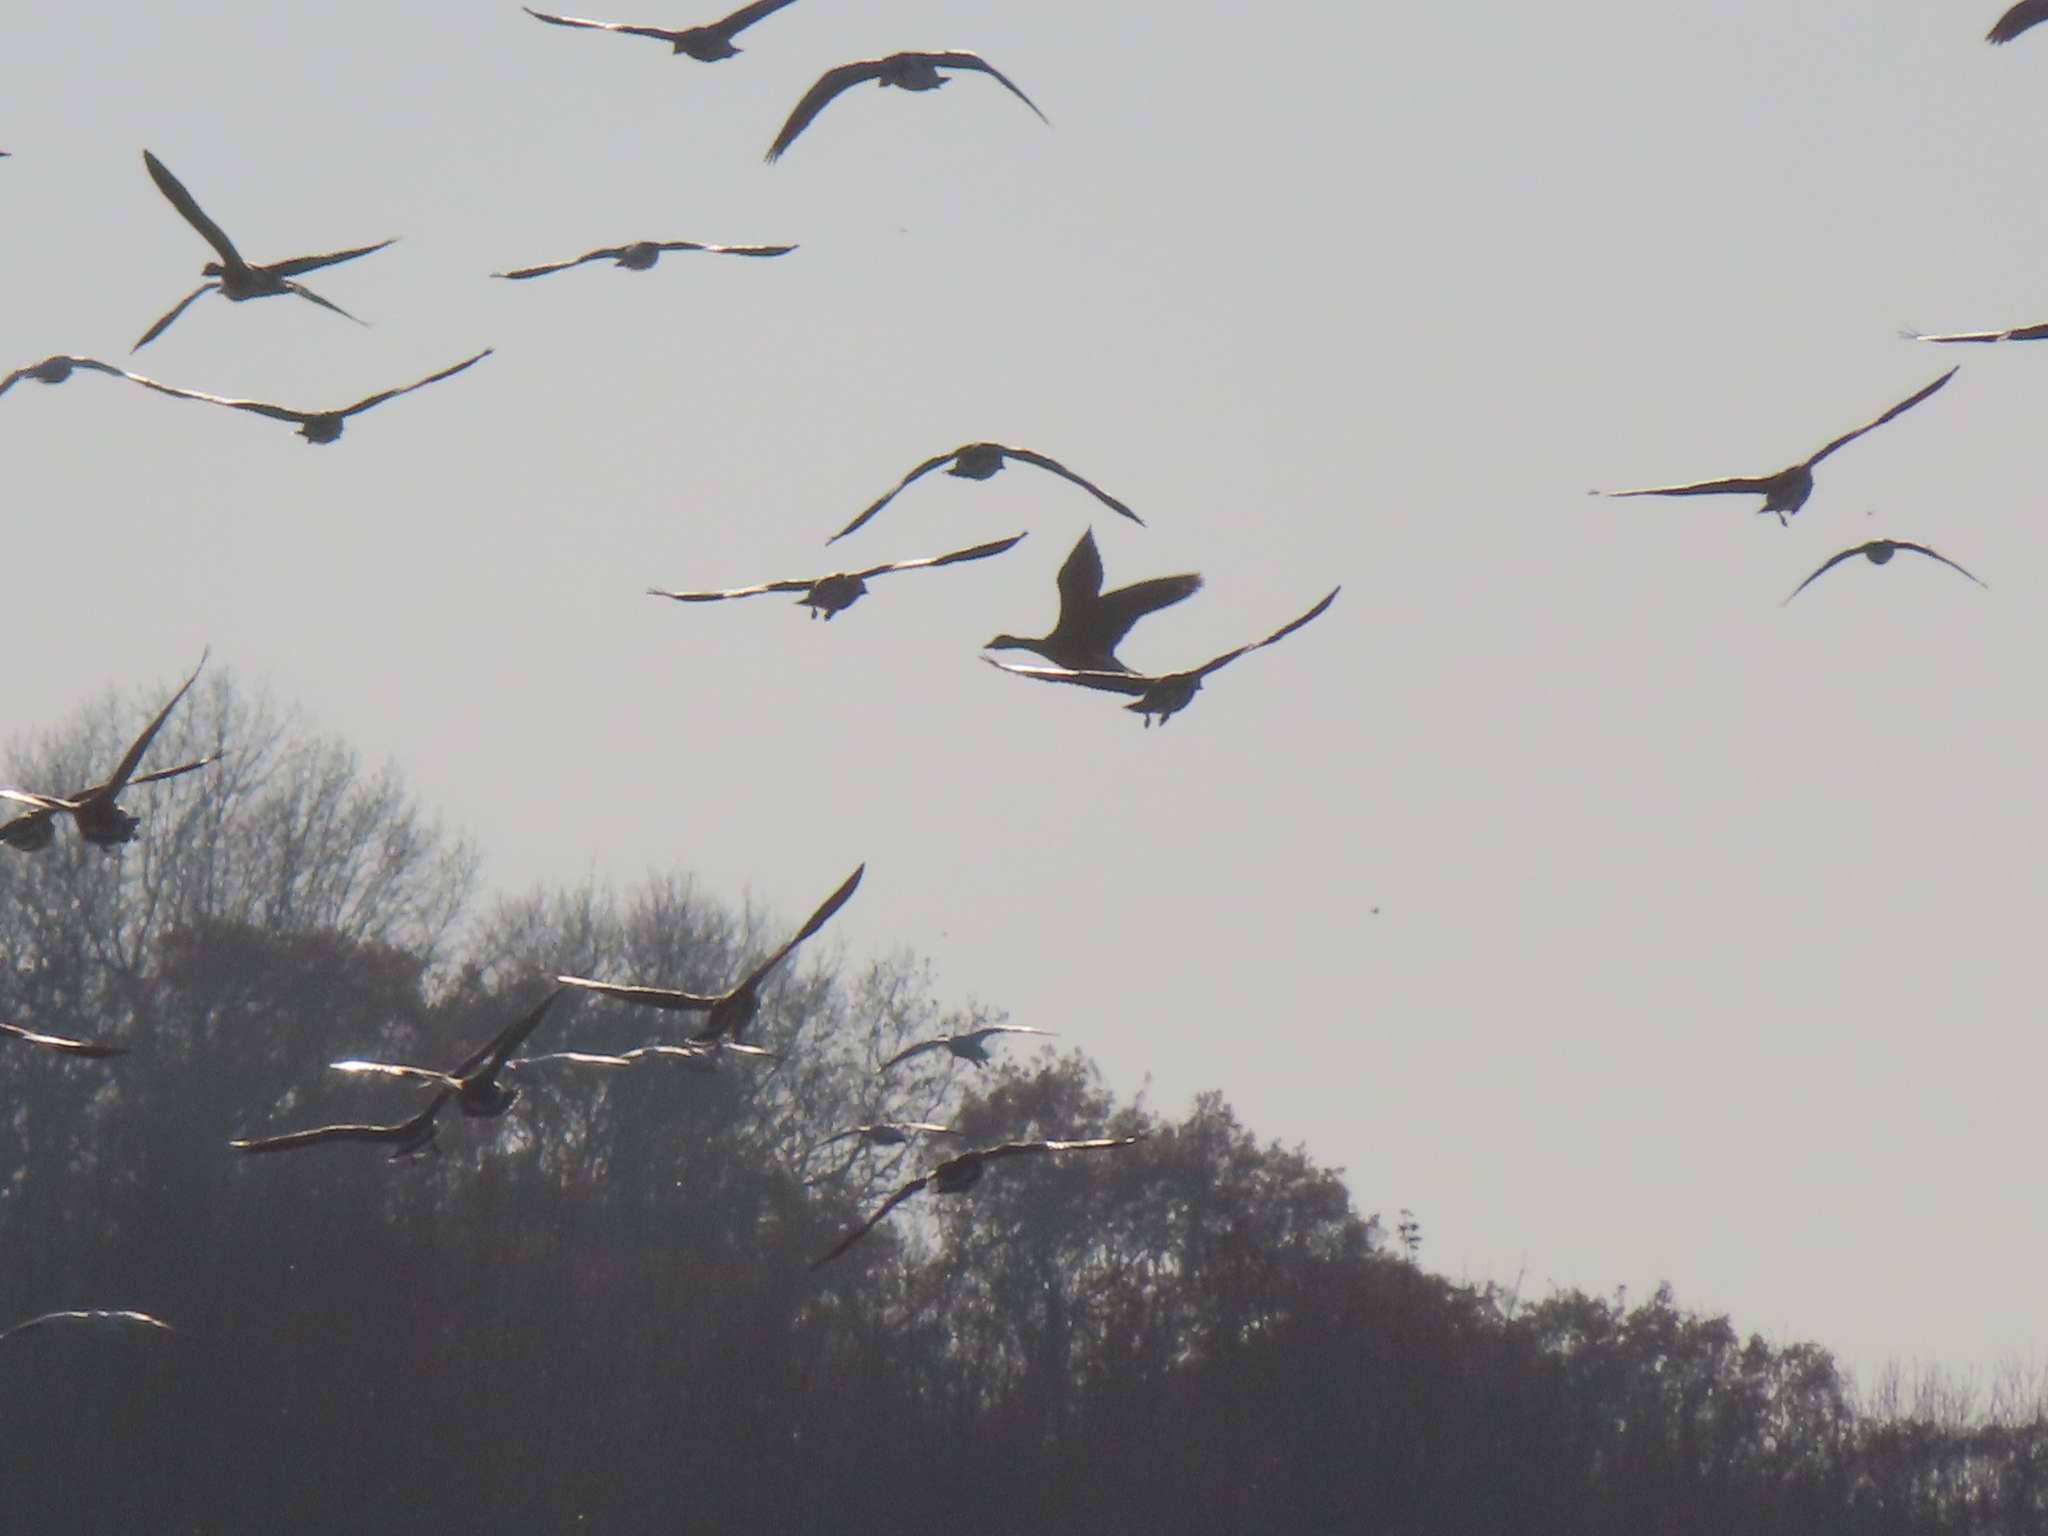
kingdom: Animalia
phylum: Chordata
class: Aves
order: Anseriformes
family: Anatidae
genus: Anser
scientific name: Anser caerulescens
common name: Snow goose
